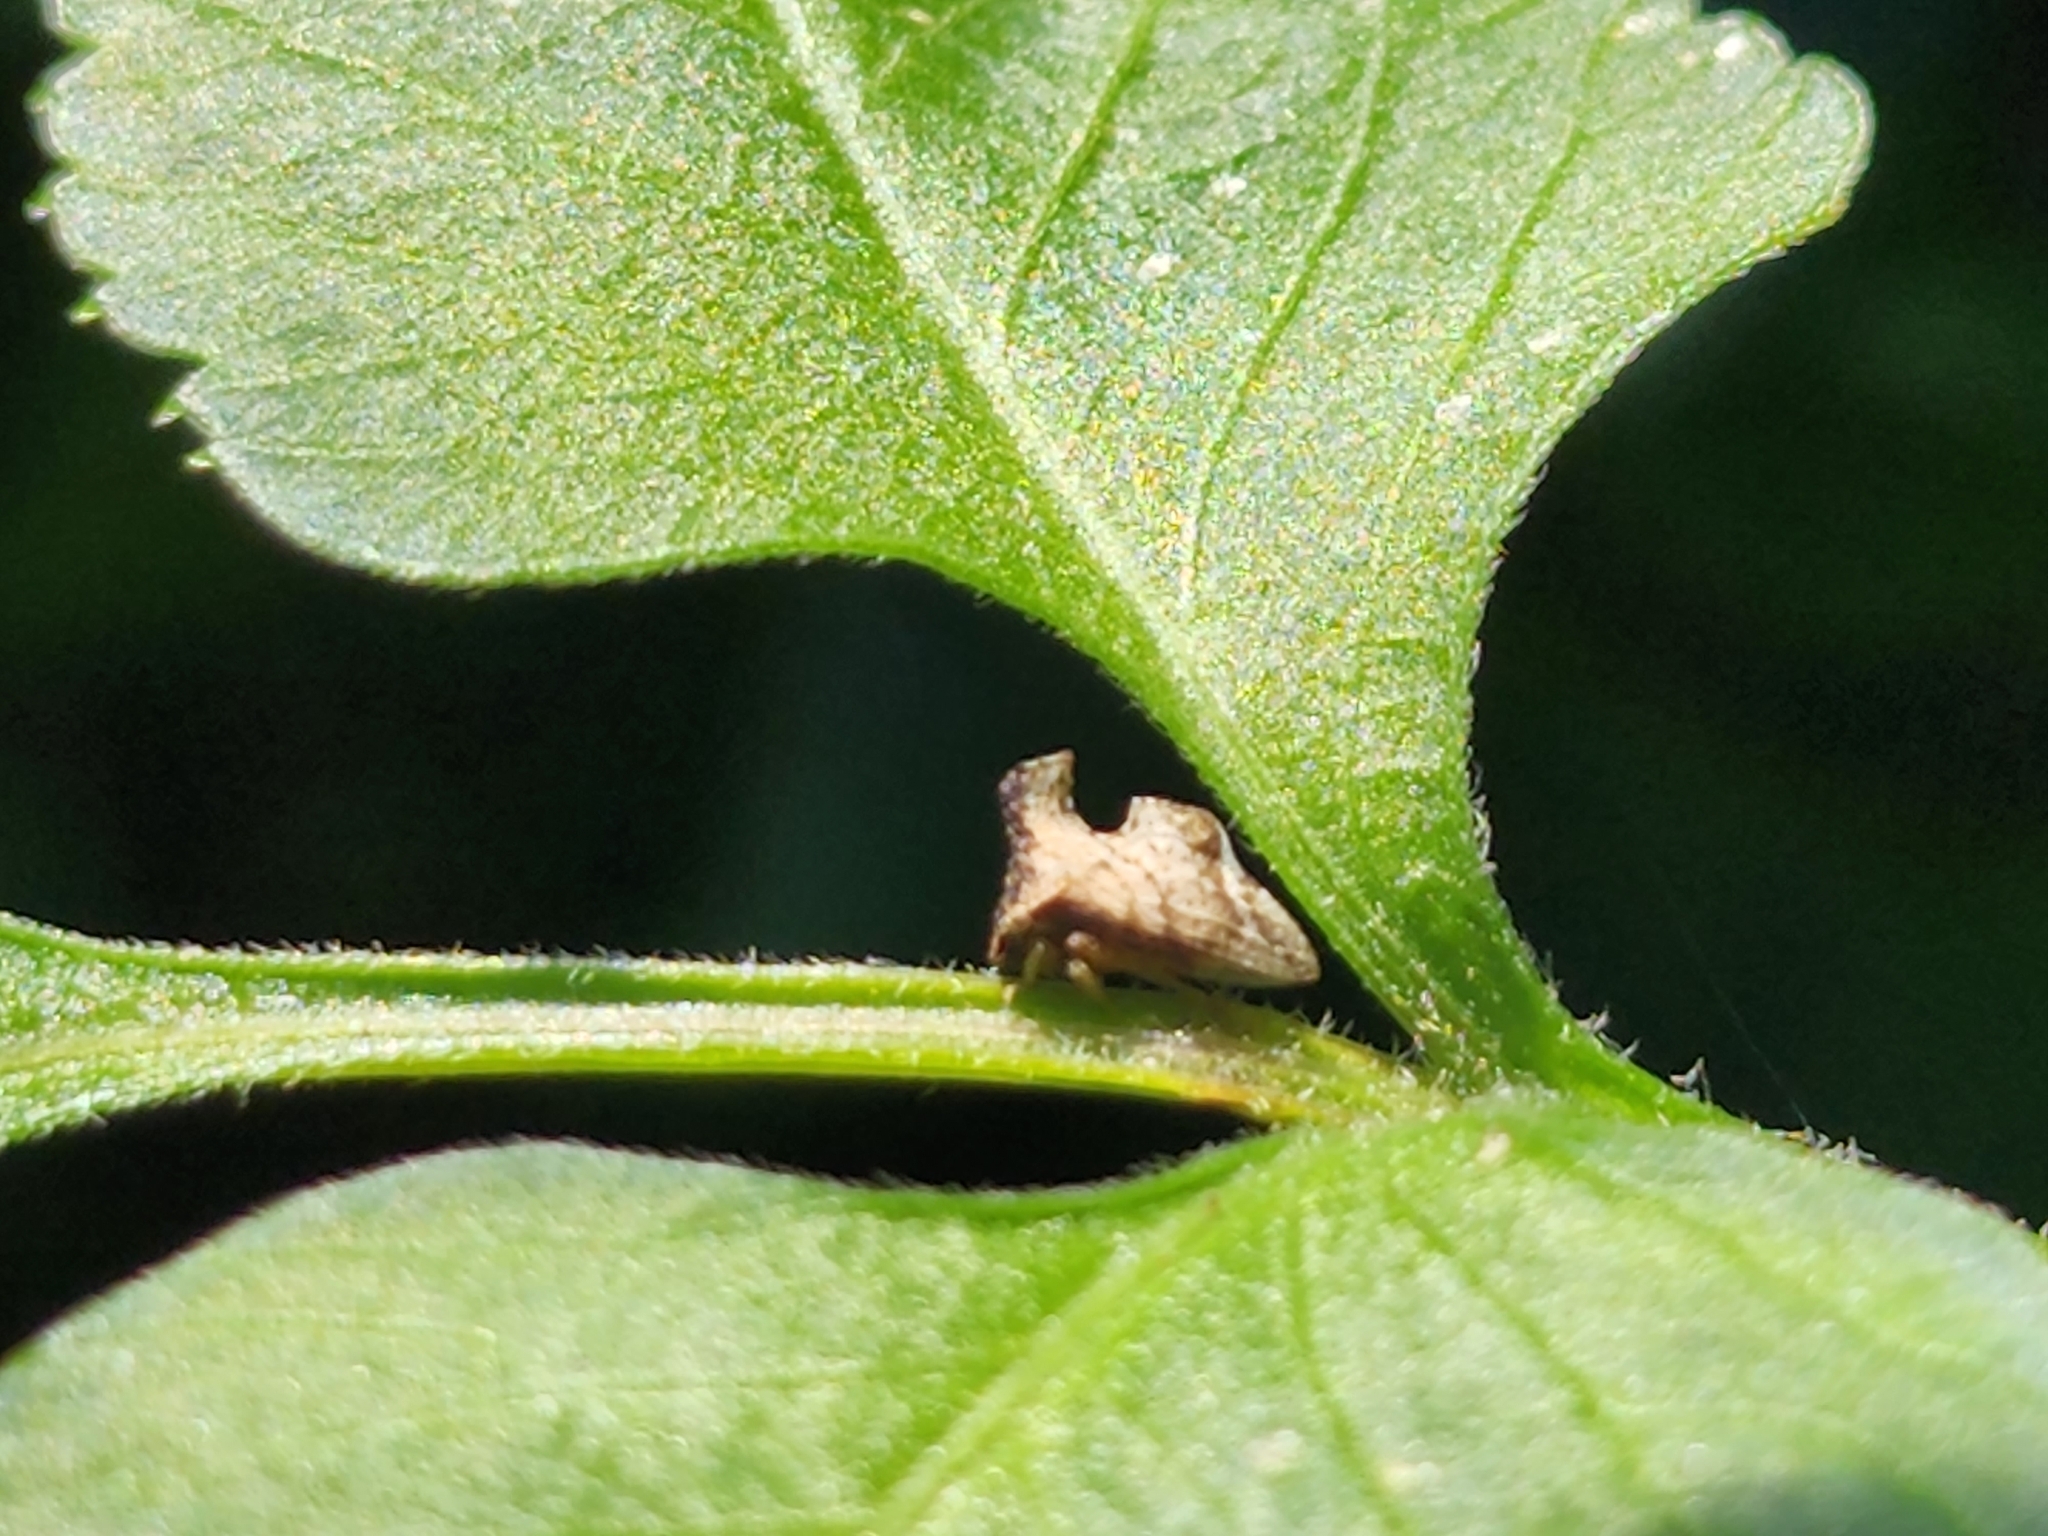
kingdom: Animalia
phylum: Arthropoda
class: Insecta
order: Hemiptera
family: Membracidae
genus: Entylia
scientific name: Entylia carinata
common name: Keeled treehopper
